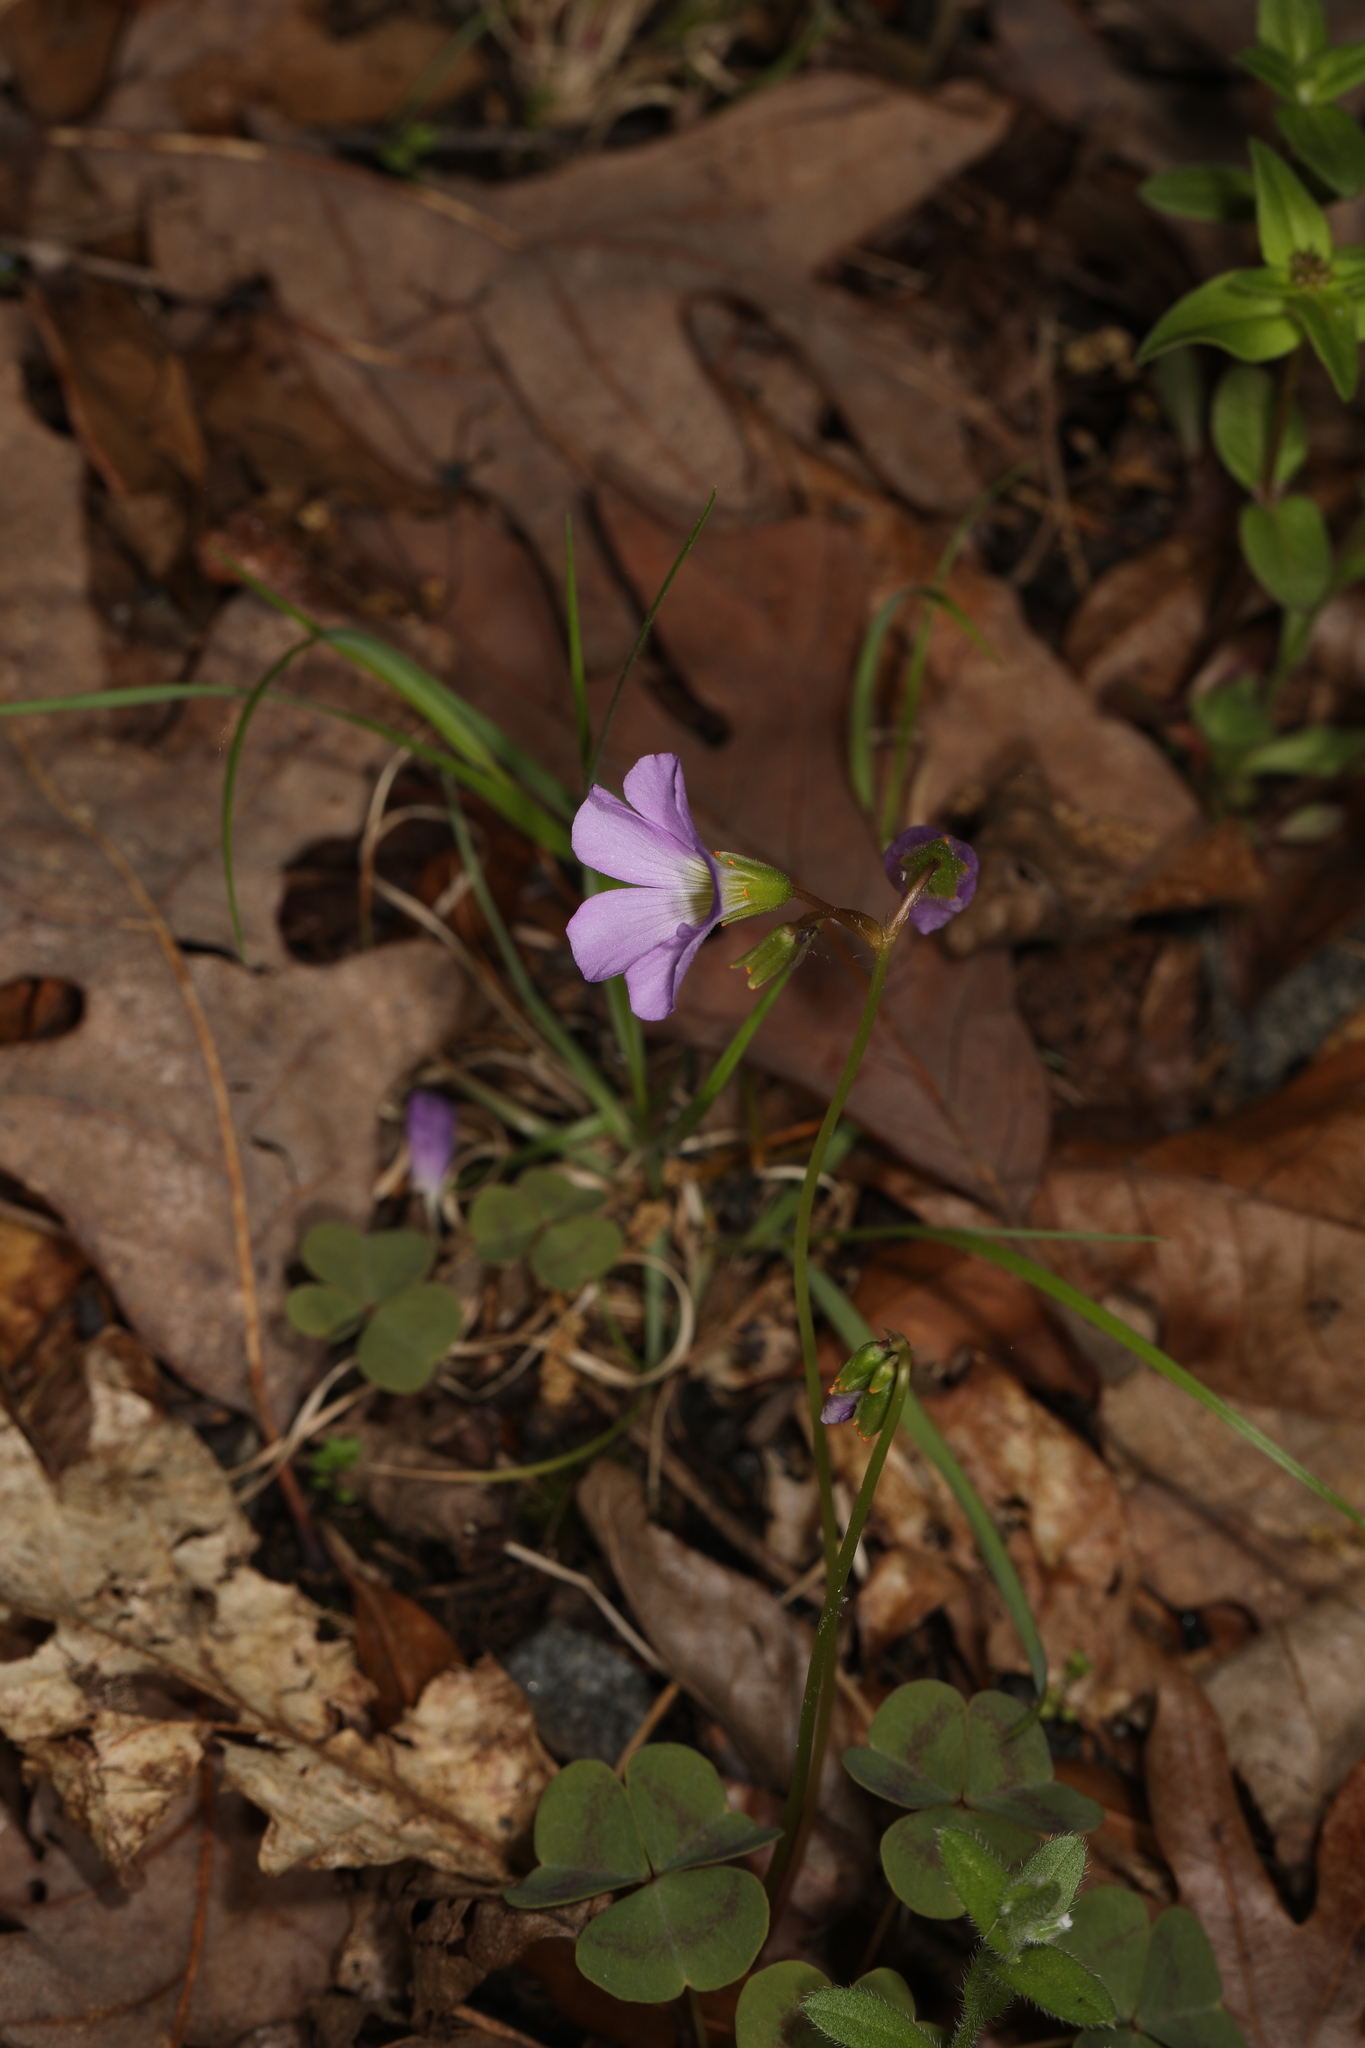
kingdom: Plantae
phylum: Tracheophyta
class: Magnoliopsida
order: Oxalidales
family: Oxalidaceae
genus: Oxalis
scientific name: Oxalis violacea
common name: Violet wood-sorrel
